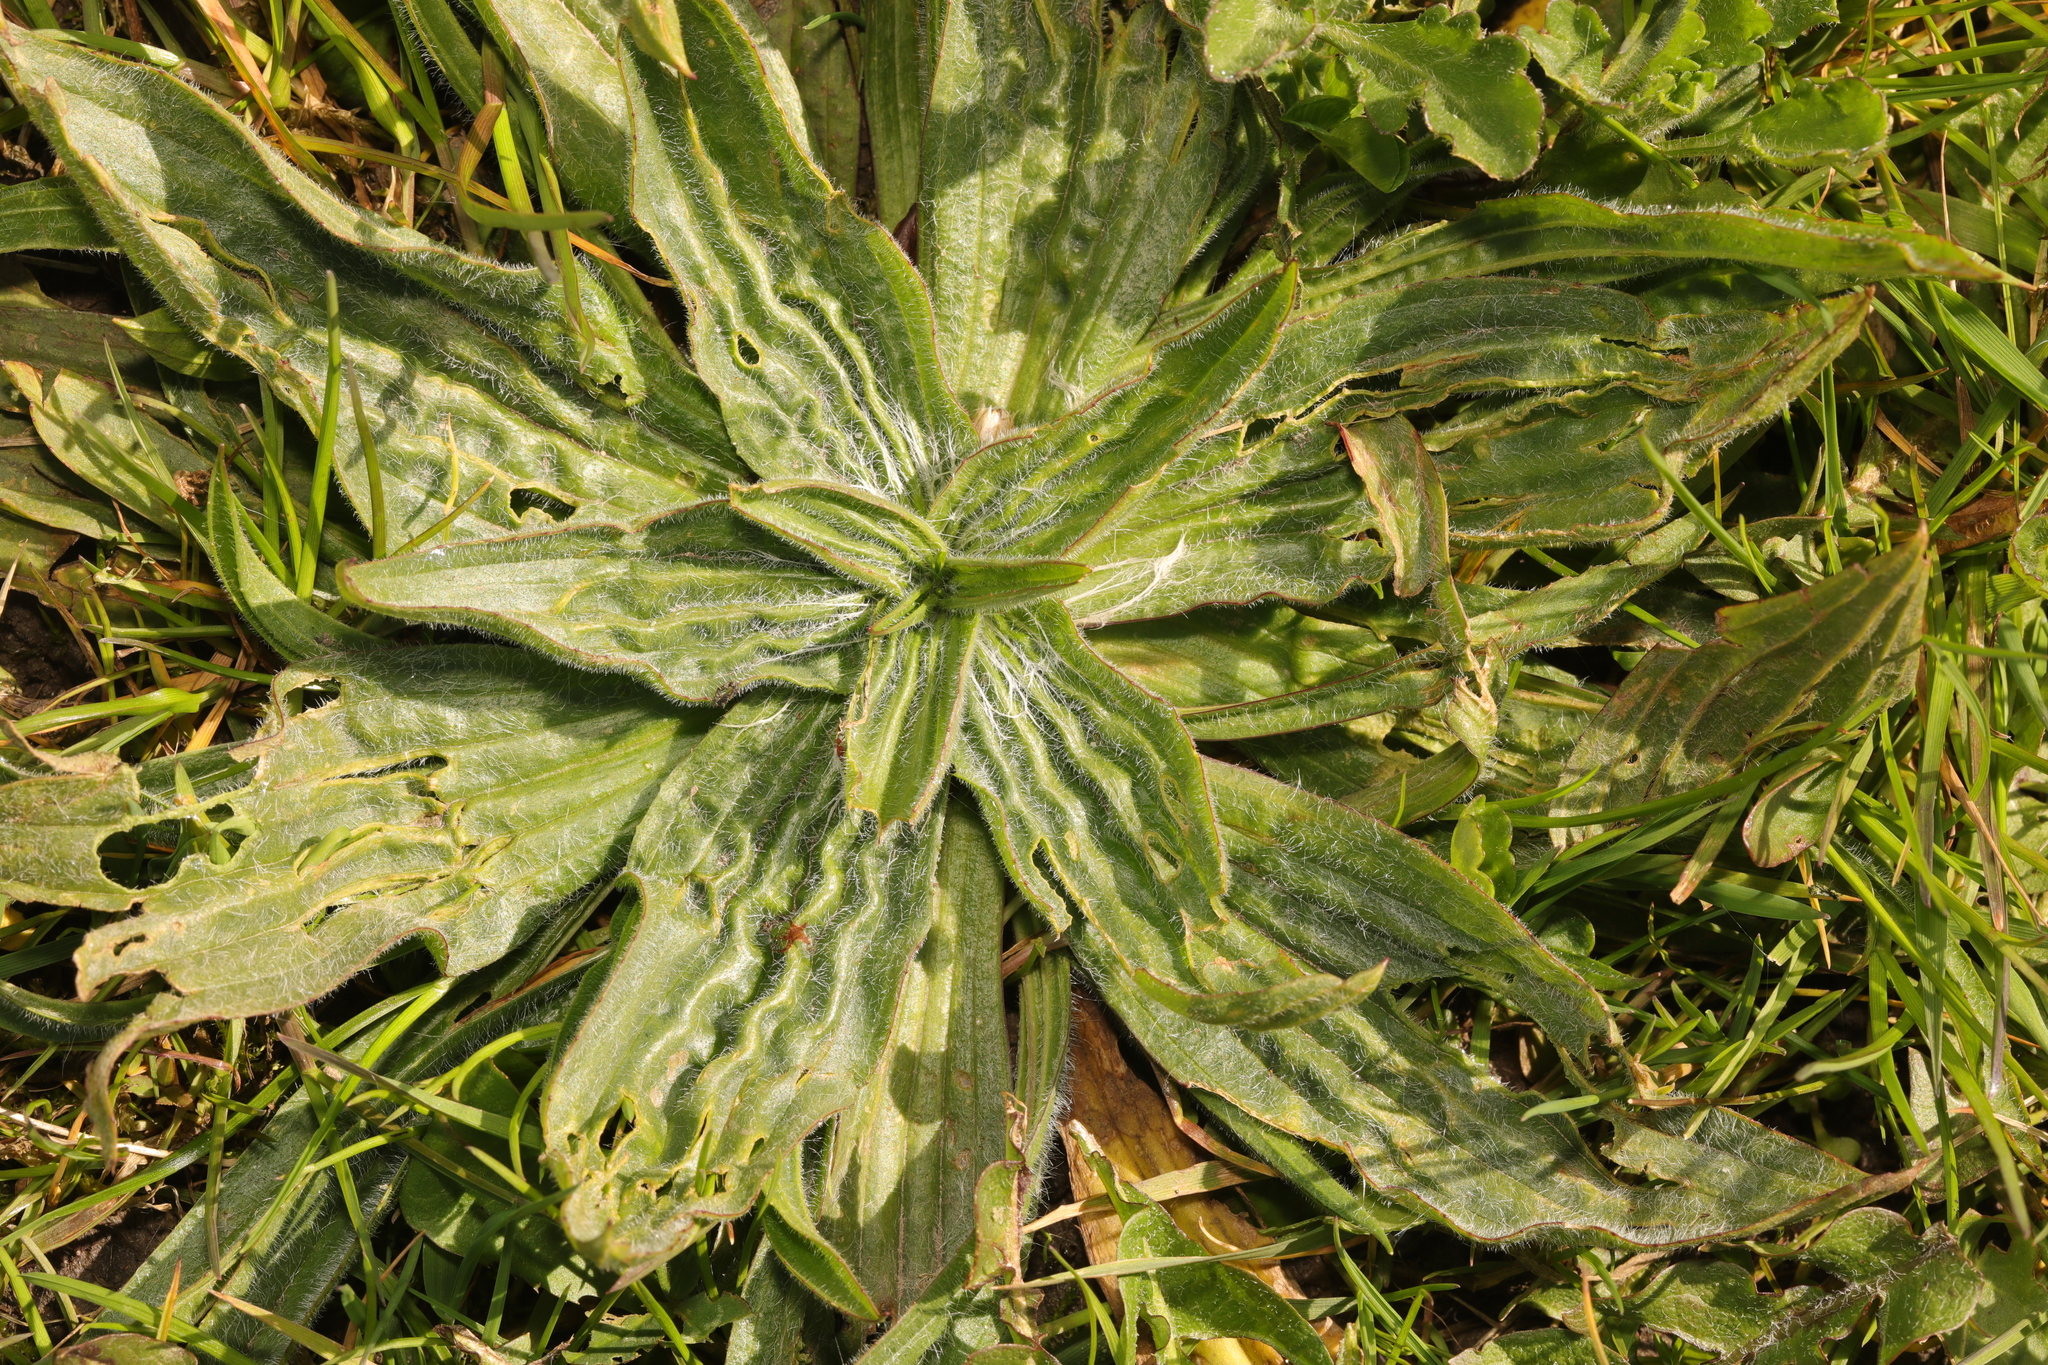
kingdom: Plantae
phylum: Tracheophyta
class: Magnoliopsida
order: Lamiales
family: Plantaginaceae
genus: Plantago
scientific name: Plantago lanceolata
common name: Ribwort plantain
